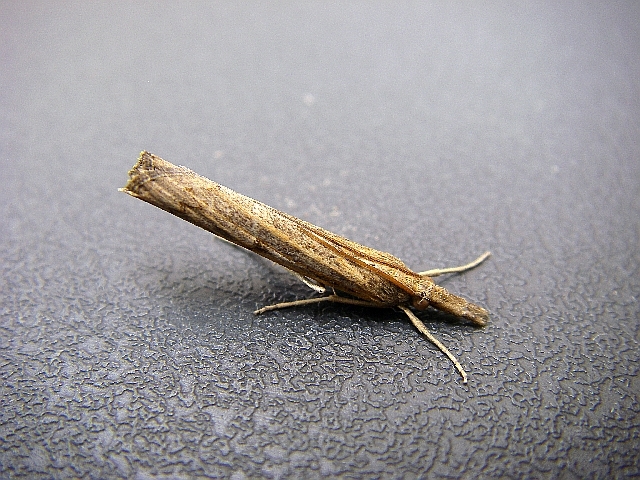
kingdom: Animalia
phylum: Arthropoda
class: Insecta
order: Lepidoptera
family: Crambidae
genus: Crambus
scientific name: Crambus pascuella
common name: Inlaid grass-veneer
